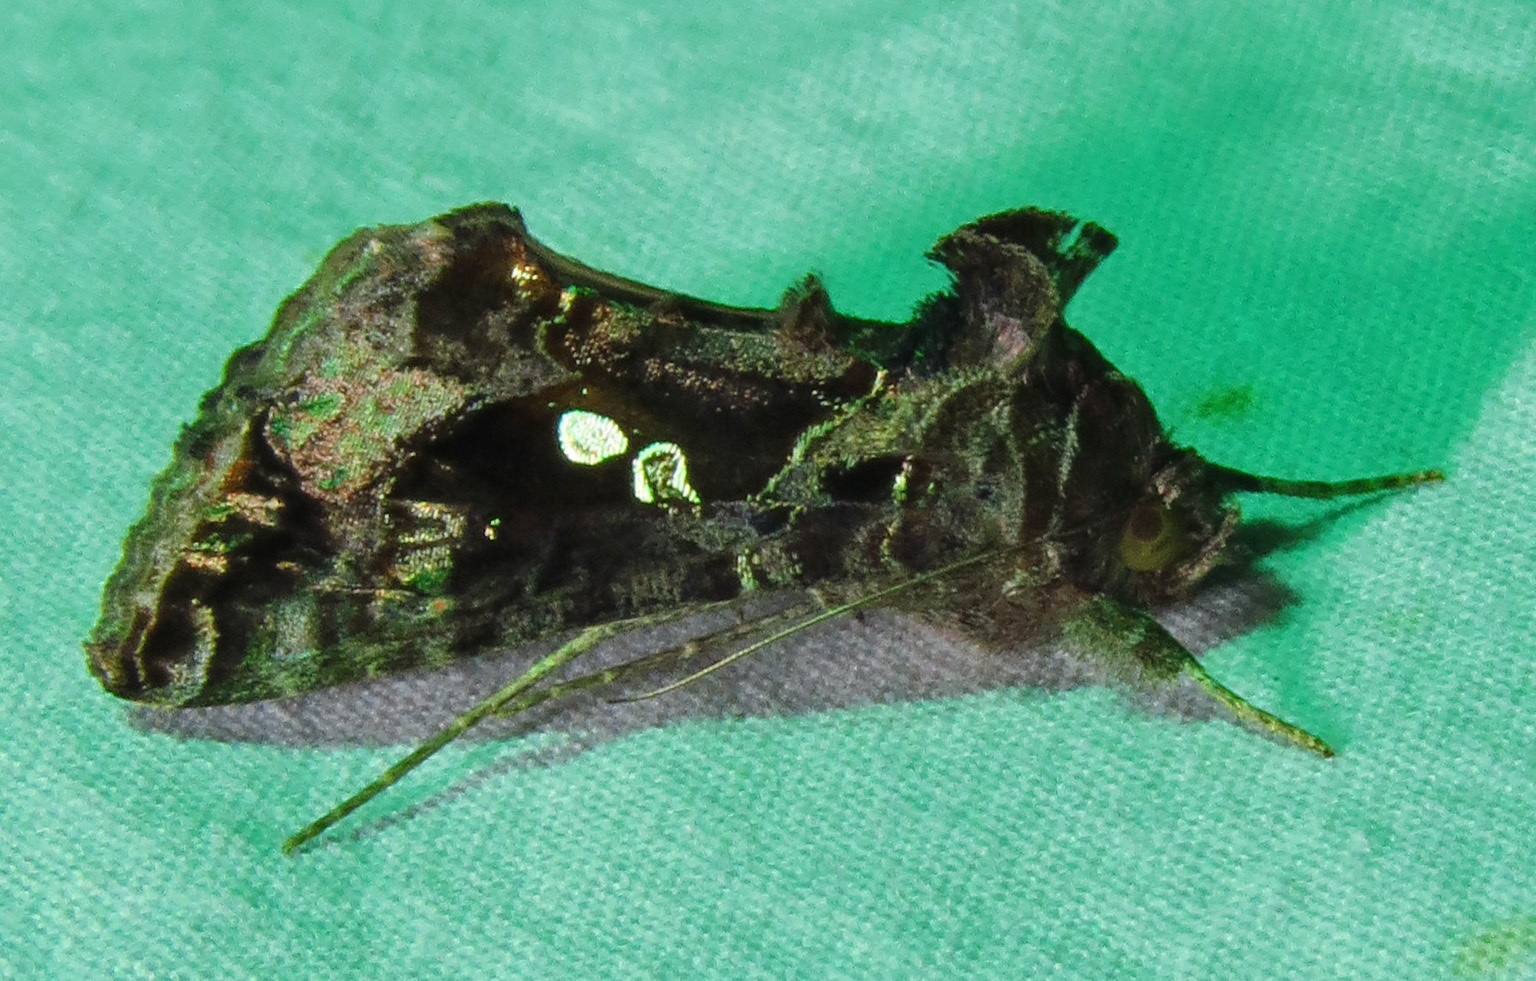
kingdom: Animalia
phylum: Arthropoda
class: Insecta
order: Lepidoptera
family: Noctuidae
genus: Chrysodeixis
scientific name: Chrysodeixis includens
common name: Cutworm moth
